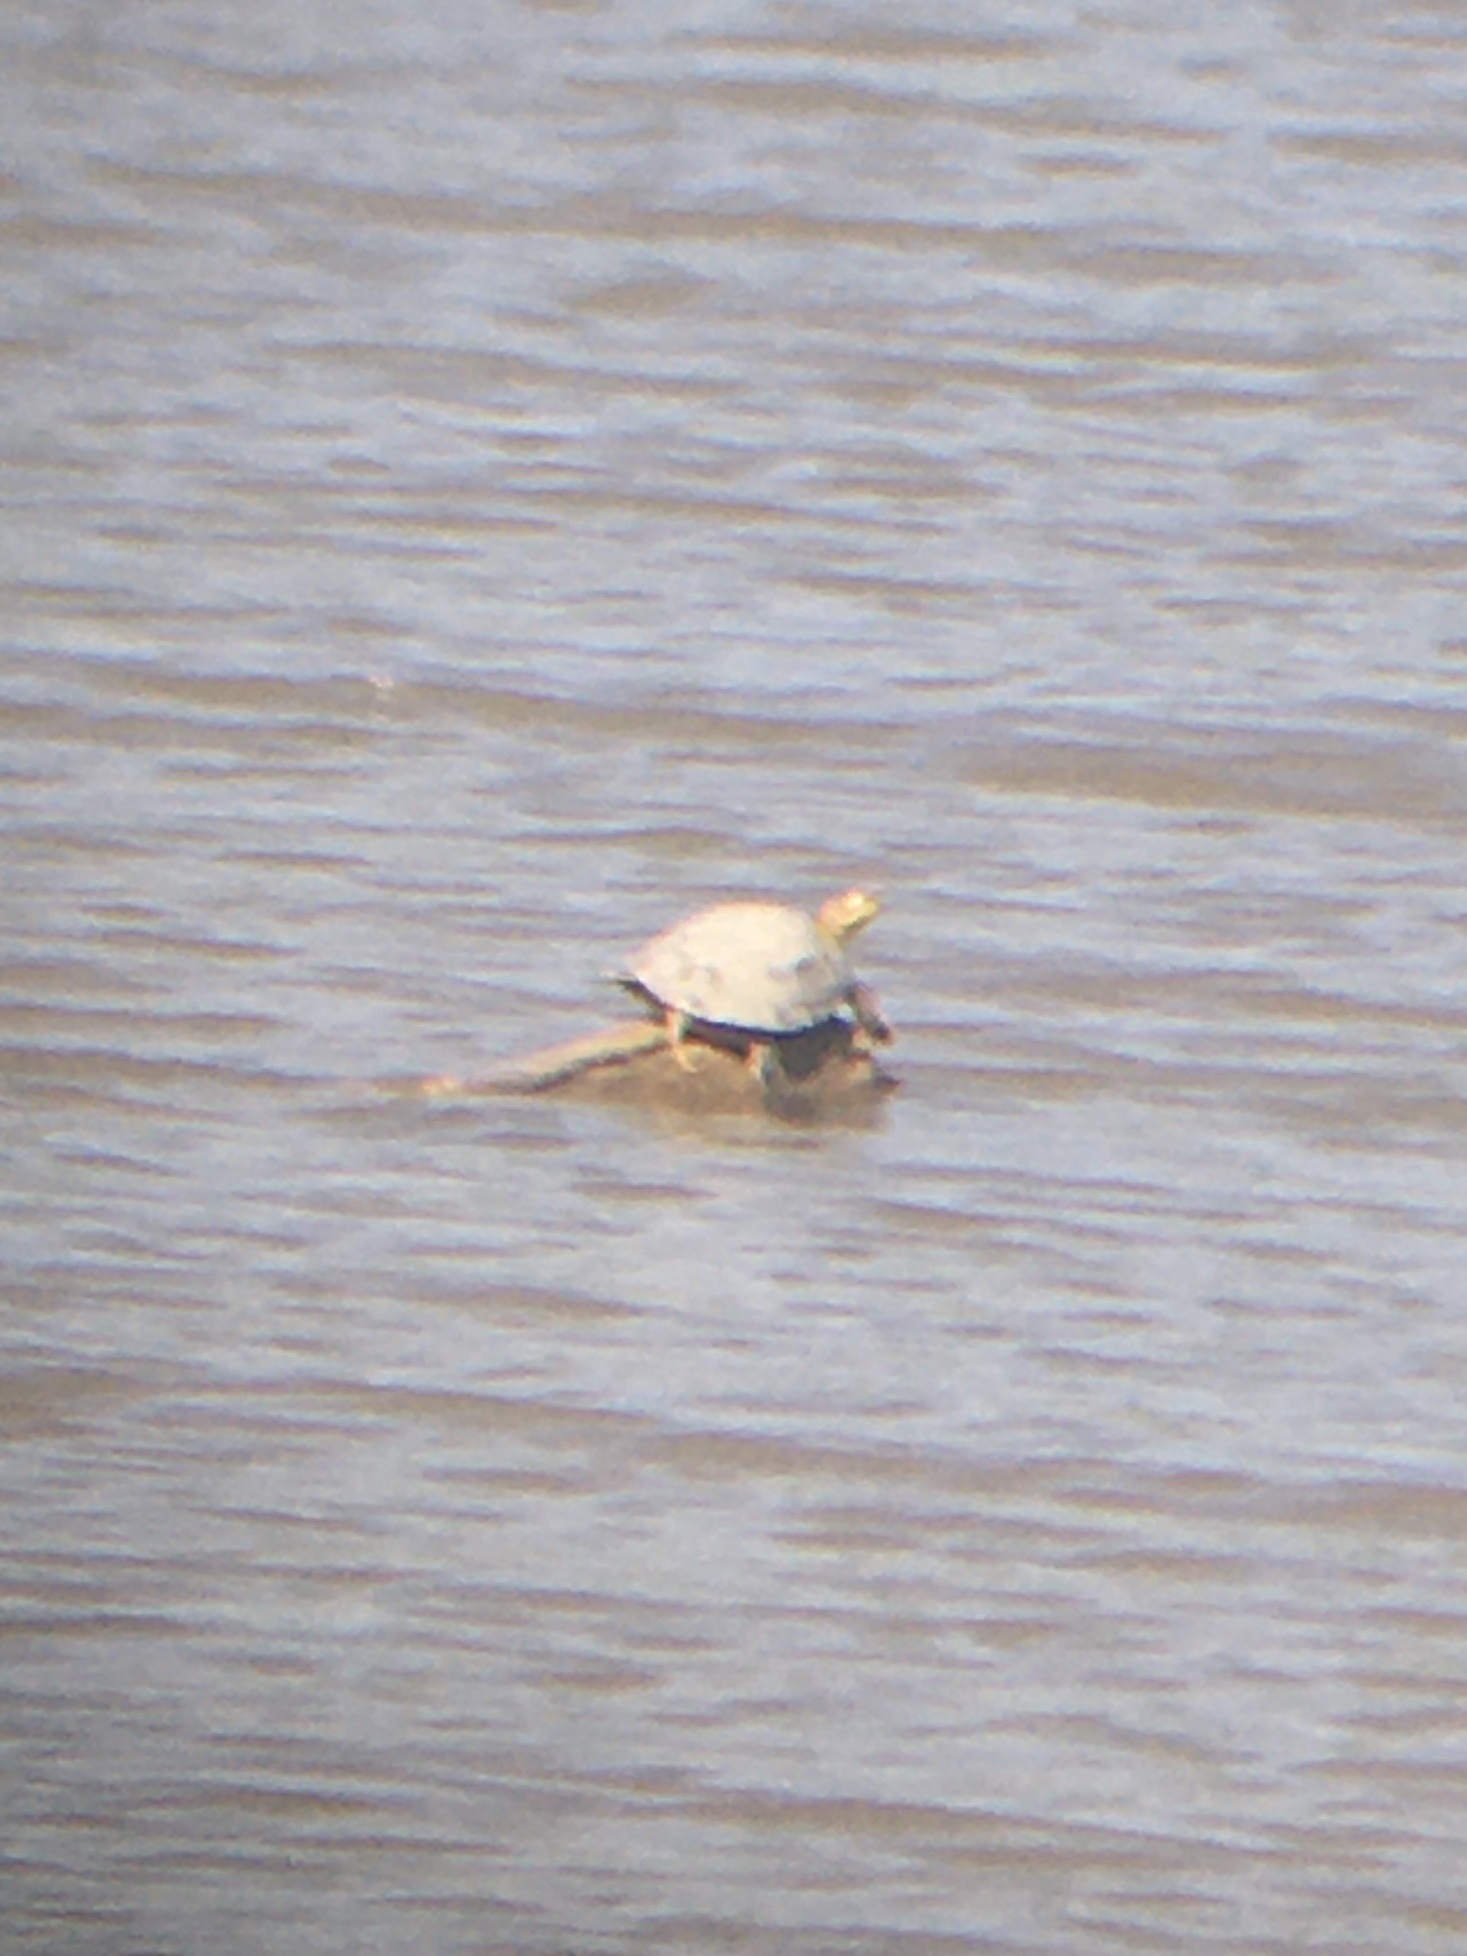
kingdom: Animalia
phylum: Chordata
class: Testudines
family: Emydidae
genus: Chrysemys
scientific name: Chrysemys picta
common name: Painted turtle
